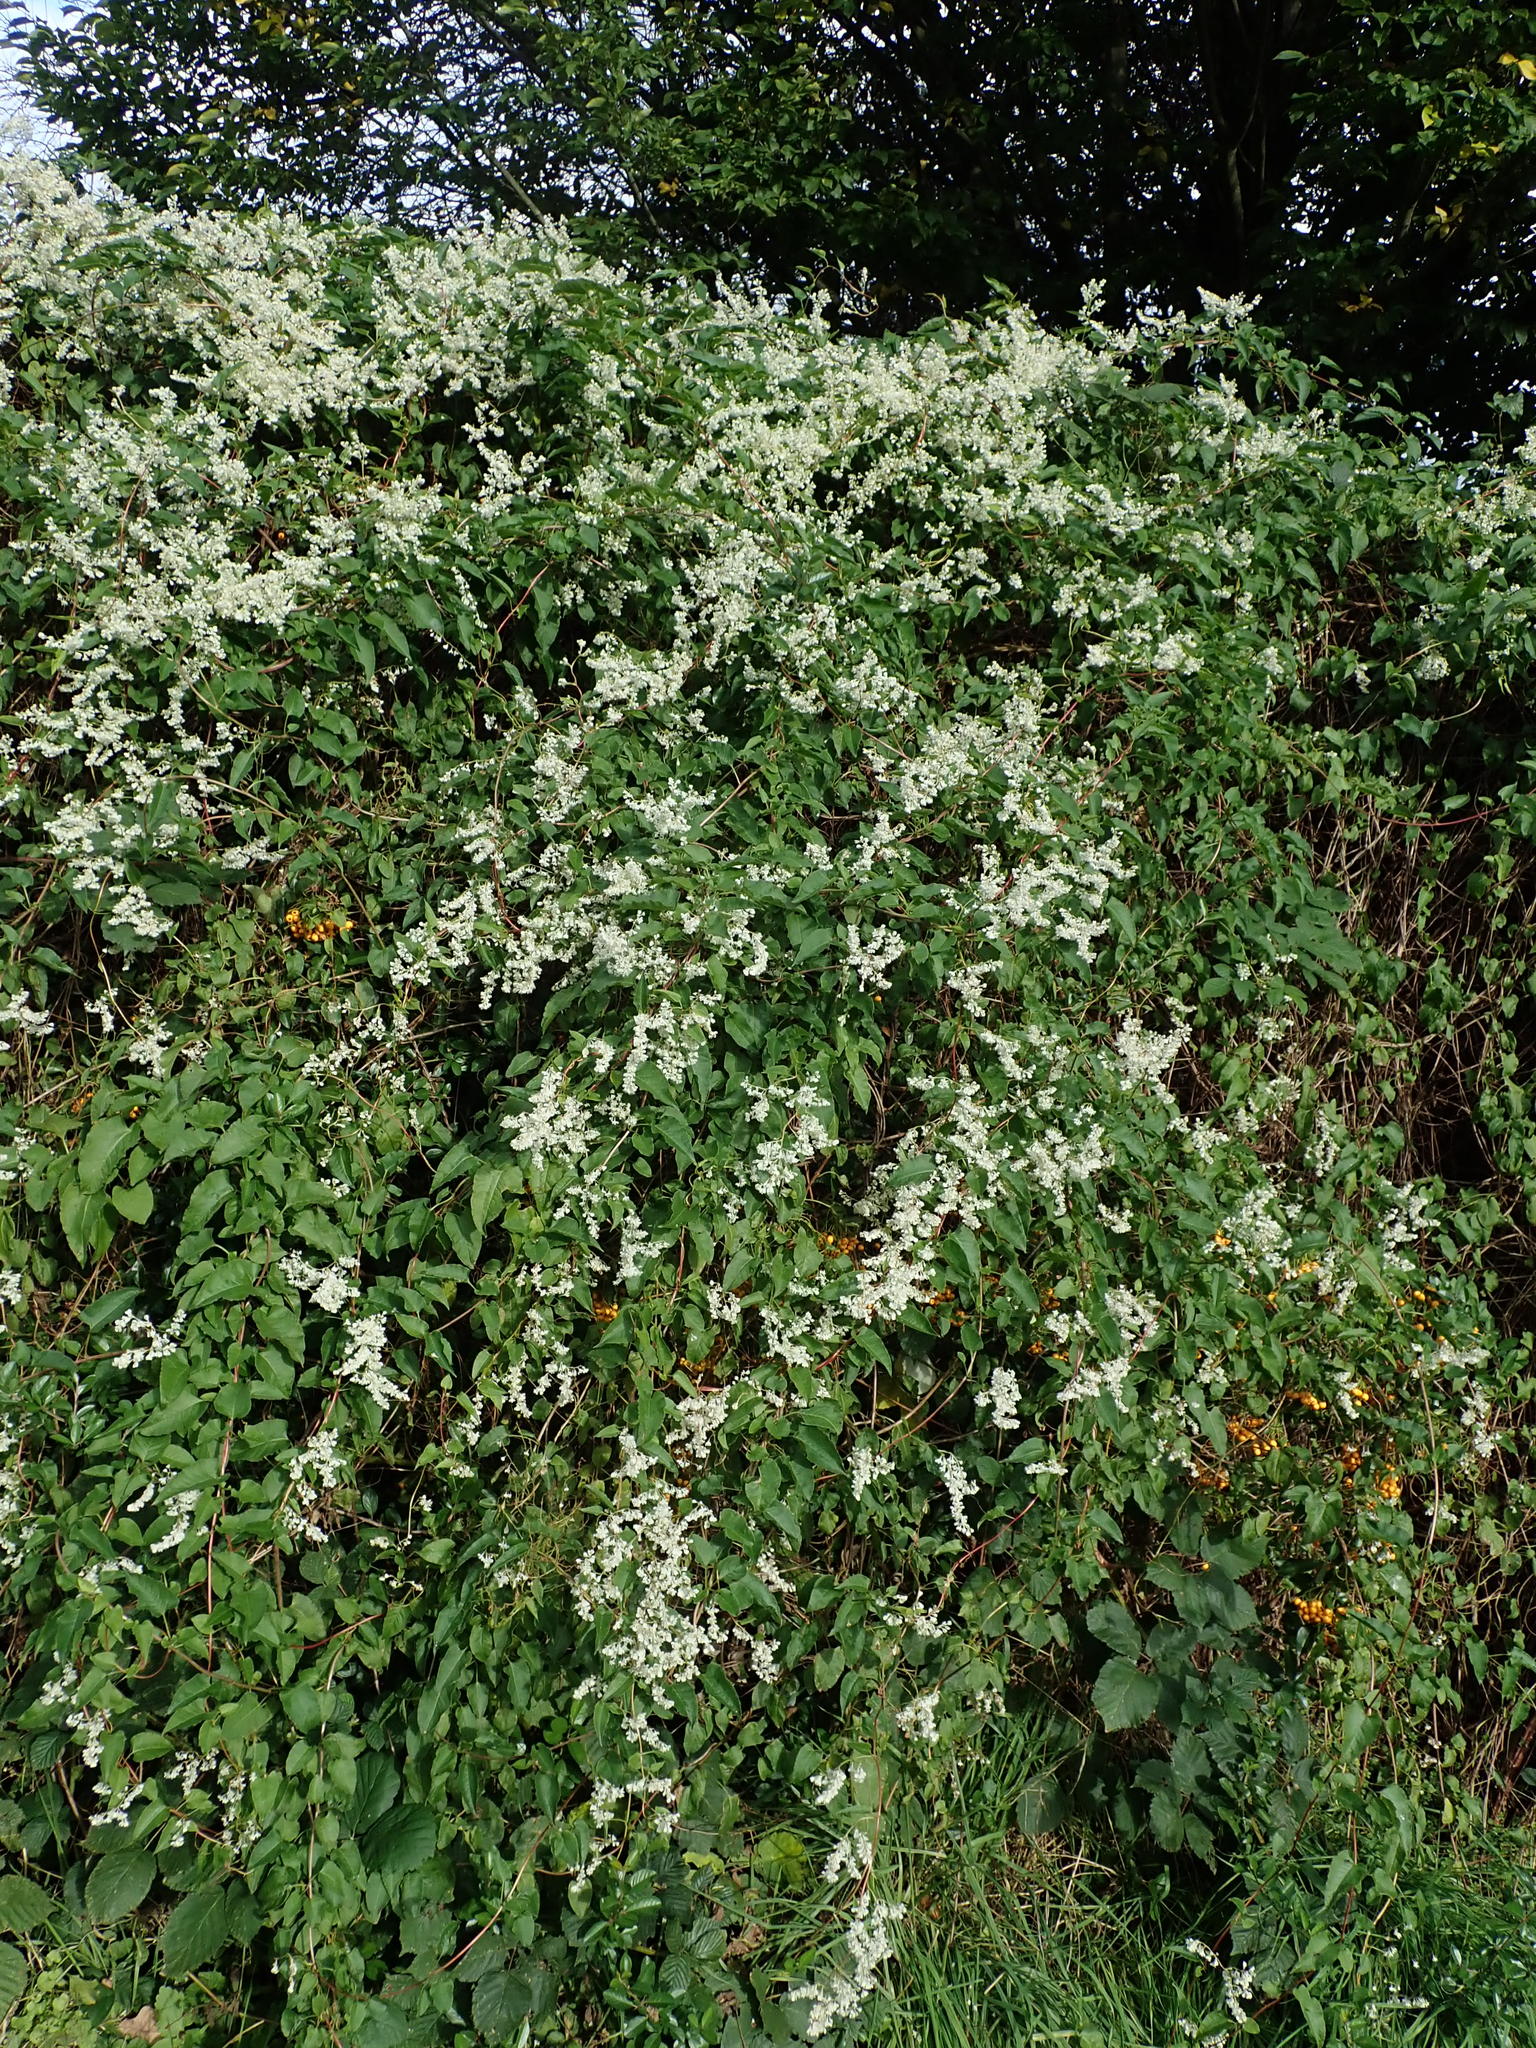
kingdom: Plantae
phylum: Tracheophyta
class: Magnoliopsida
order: Caryophyllales
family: Polygonaceae
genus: Fallopia
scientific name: Fallopia baldschuanica
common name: Russian-vine
